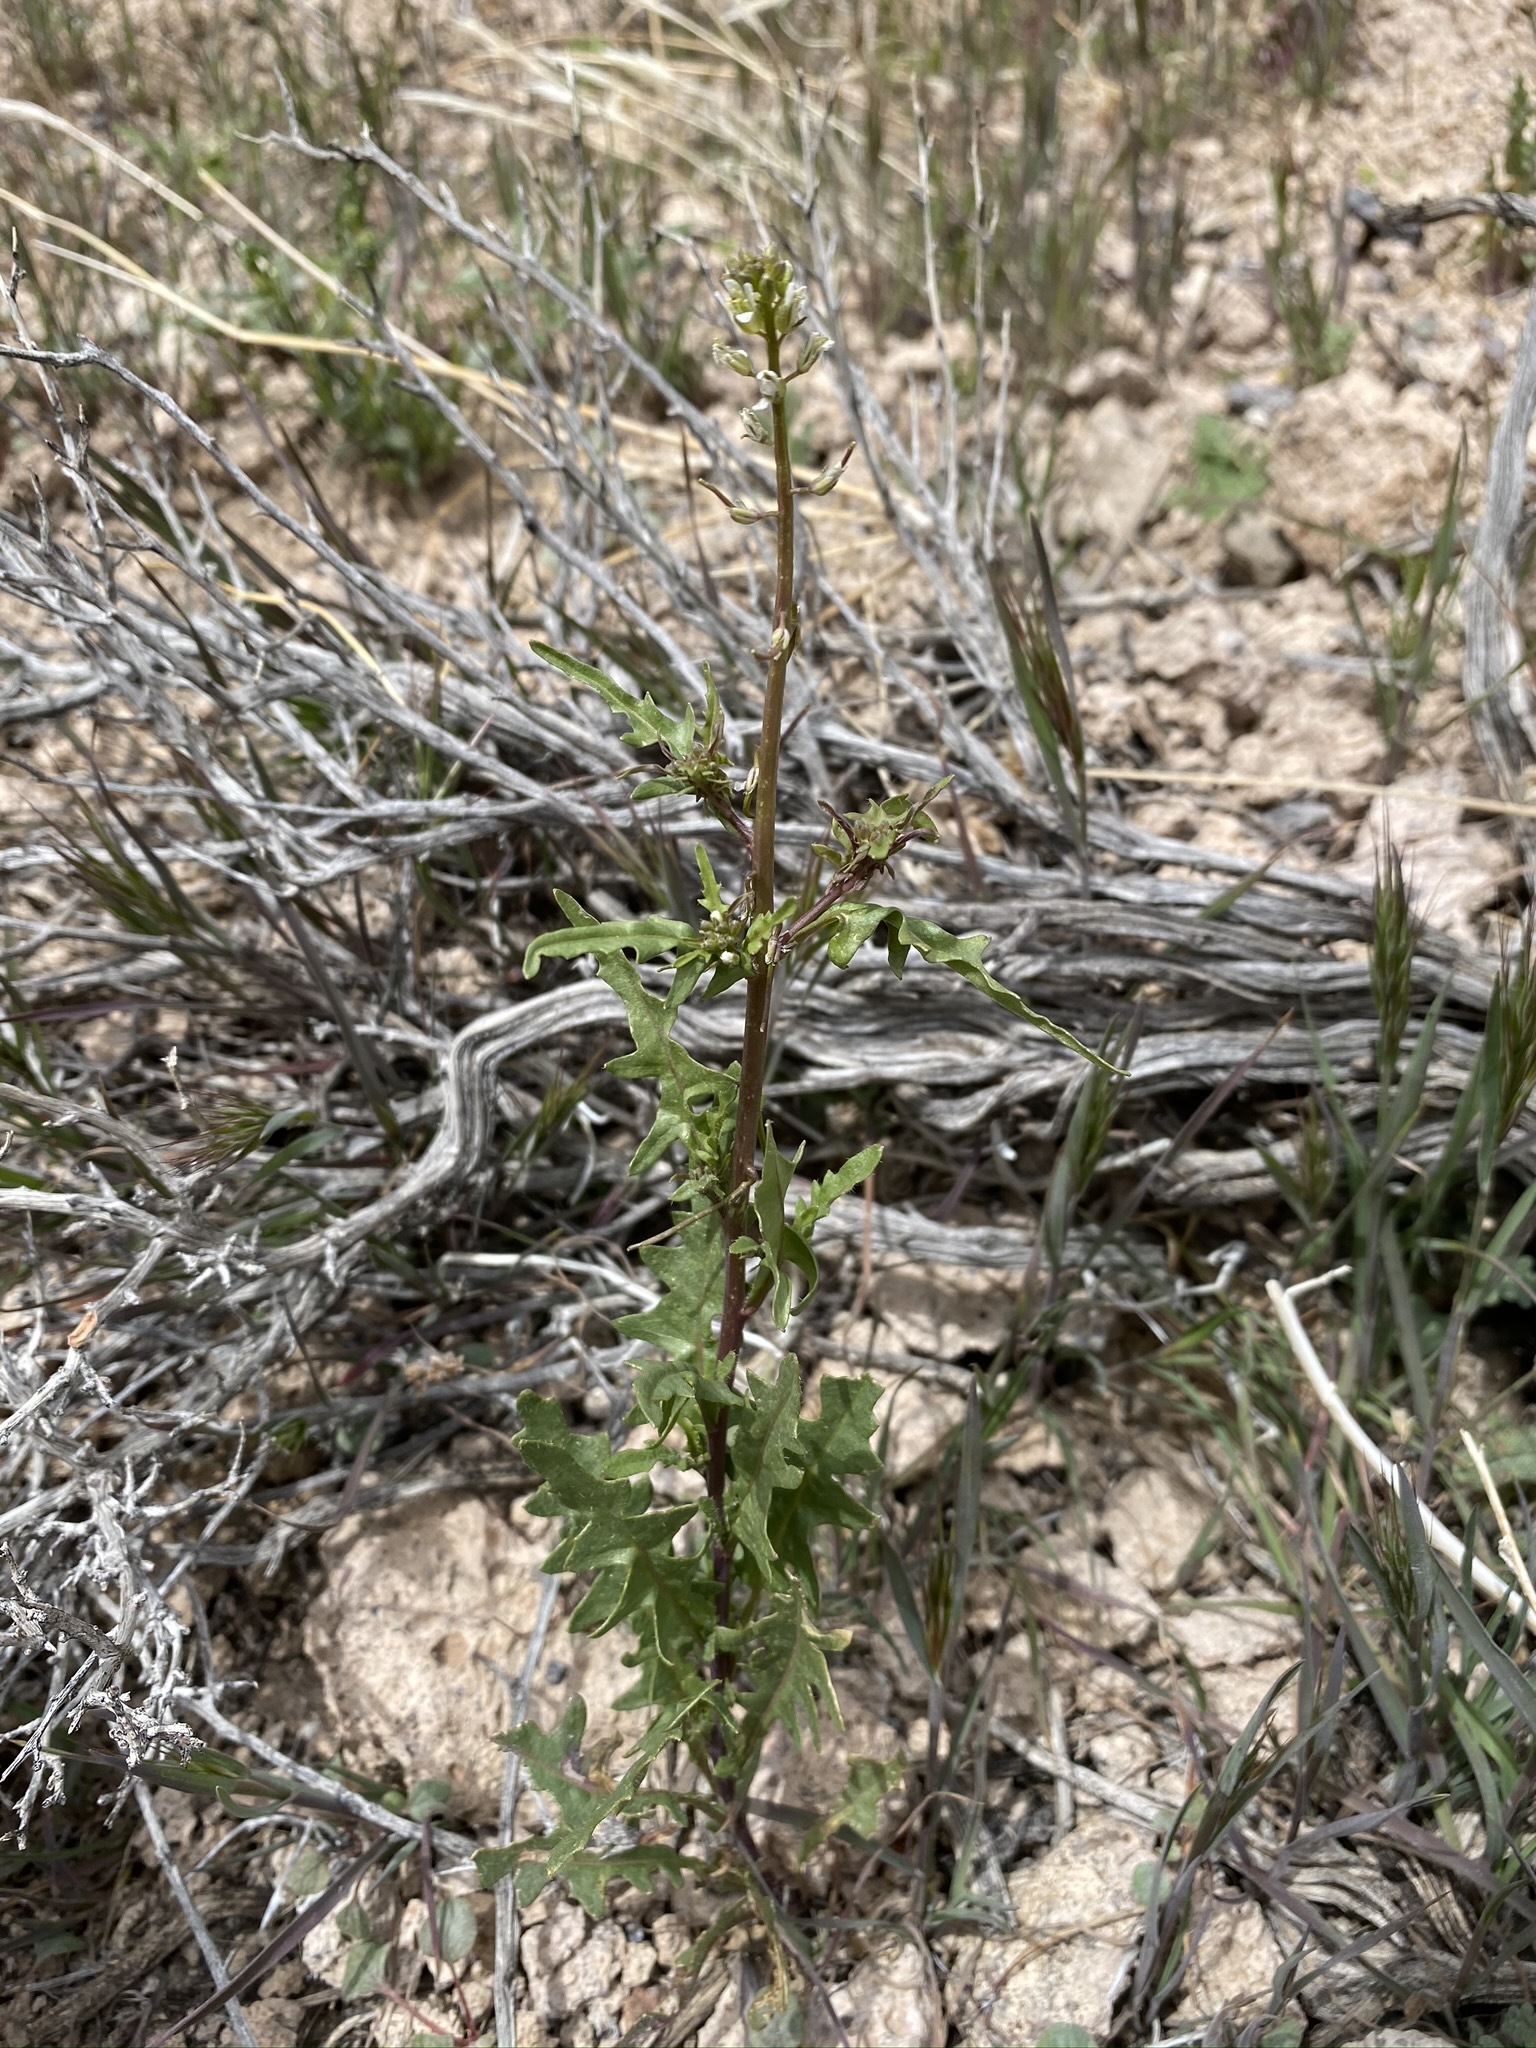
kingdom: Plantae
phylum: Tracheophyta
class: Magnoliopsida
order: Brassicales
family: Brassicaceae
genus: Streptanthus
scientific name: Streptanthus lasiophyllus
